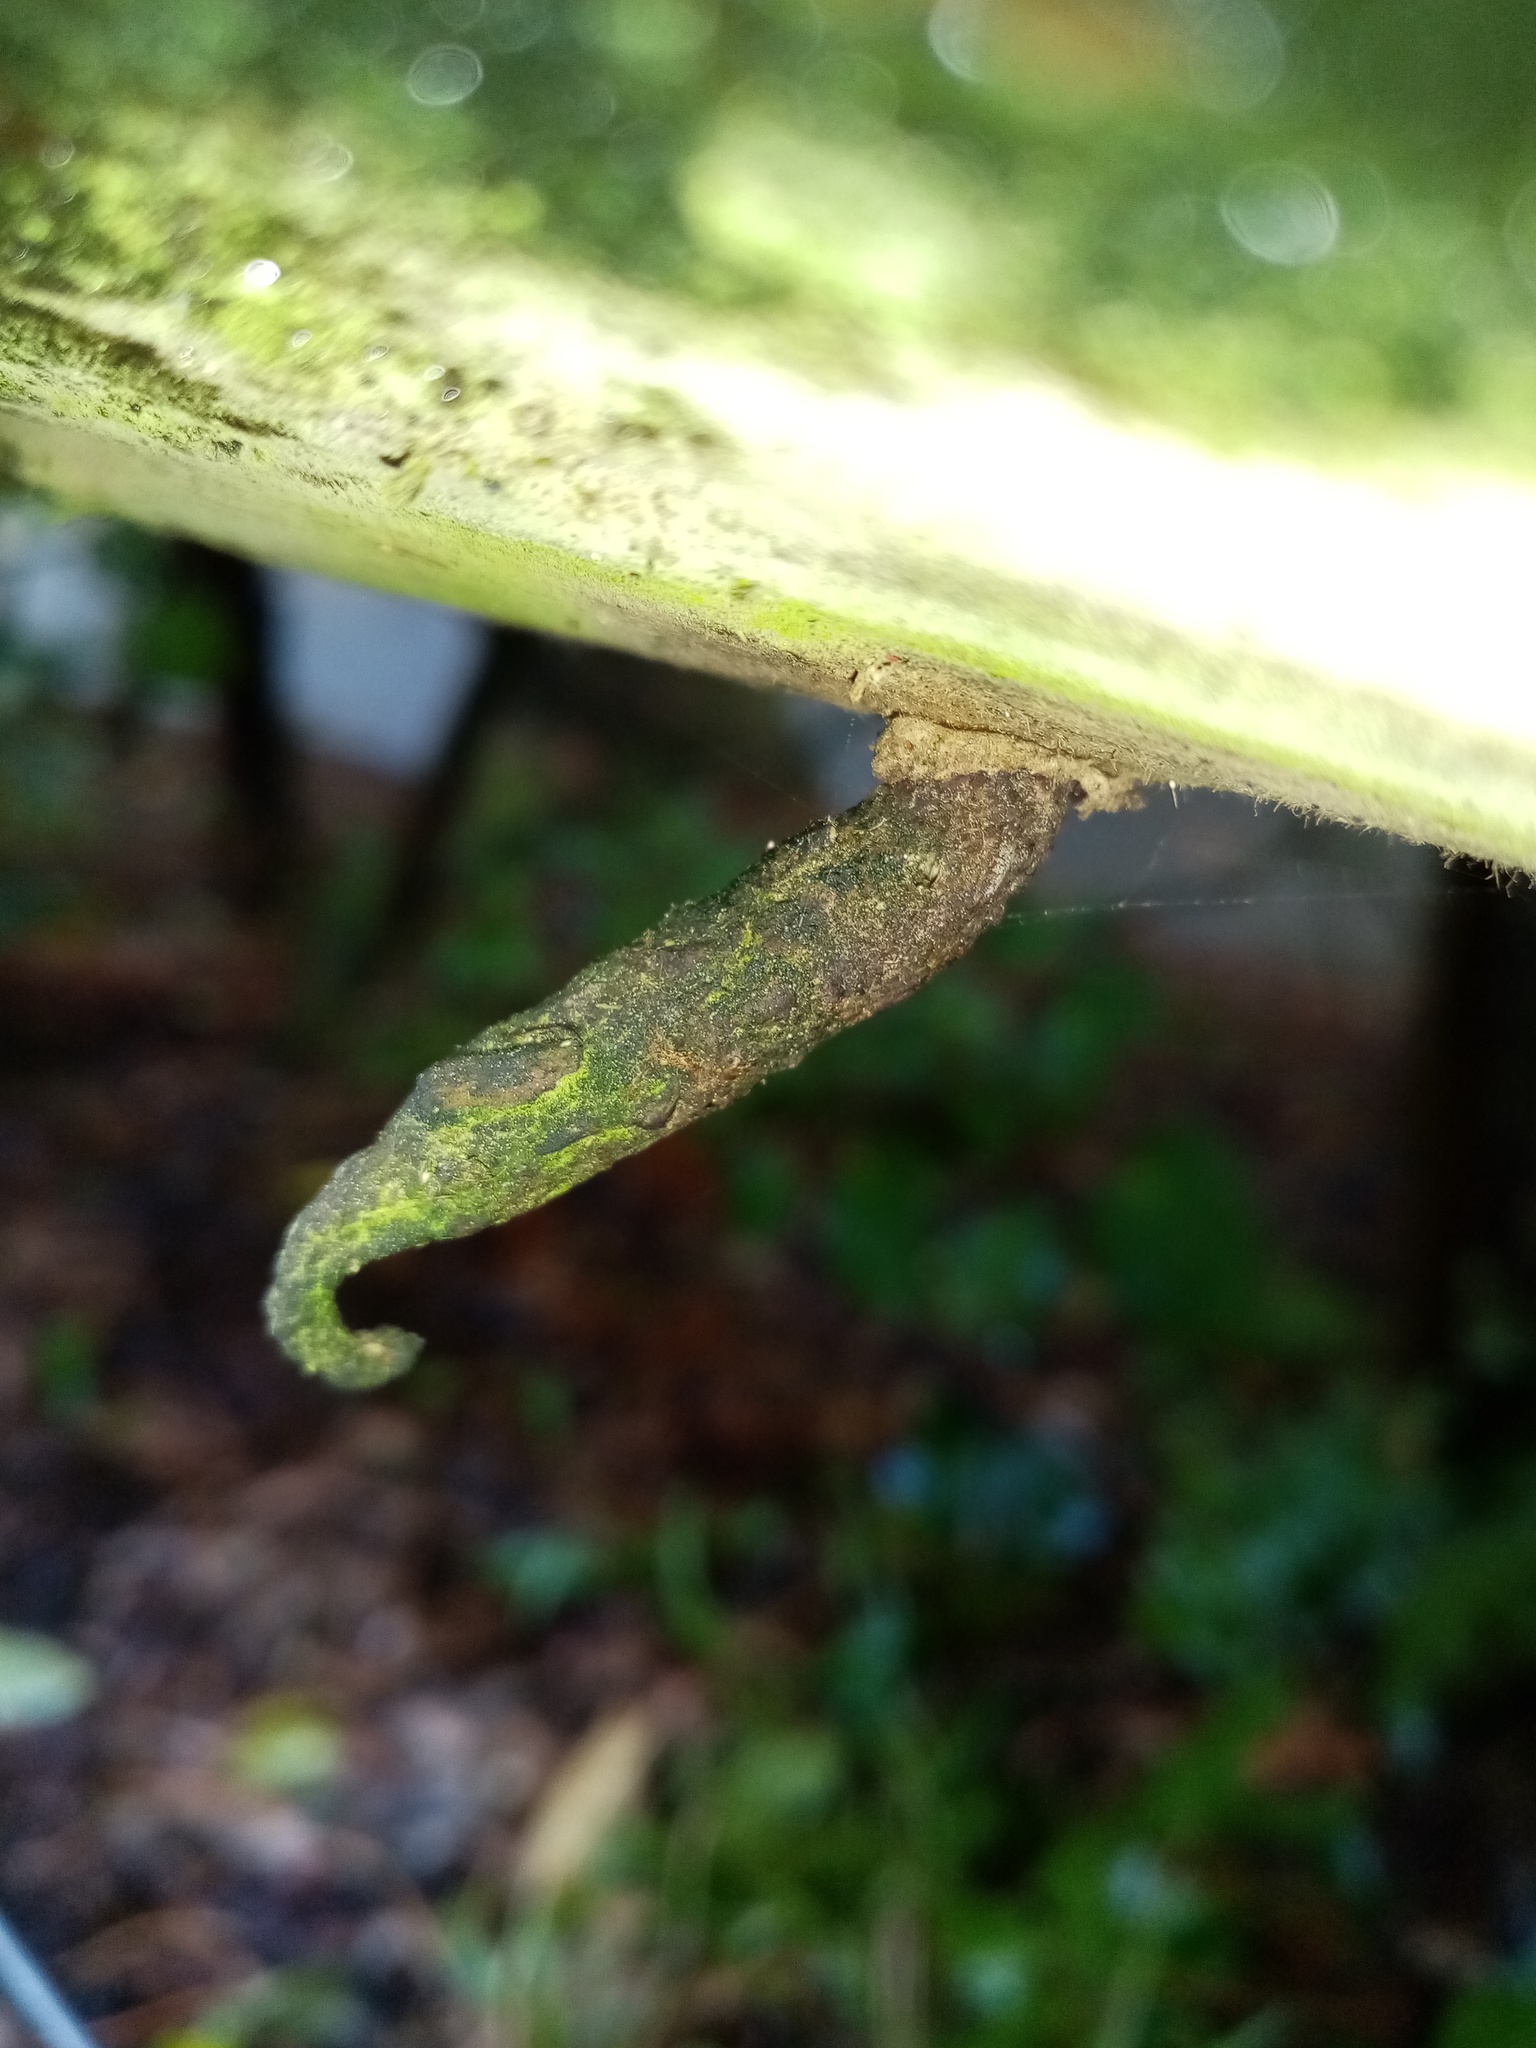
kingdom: Animalia
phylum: Arthropoda
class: Insecta
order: Lepidoptera
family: Psychidae
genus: Liothula
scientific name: Liothula omnivora
